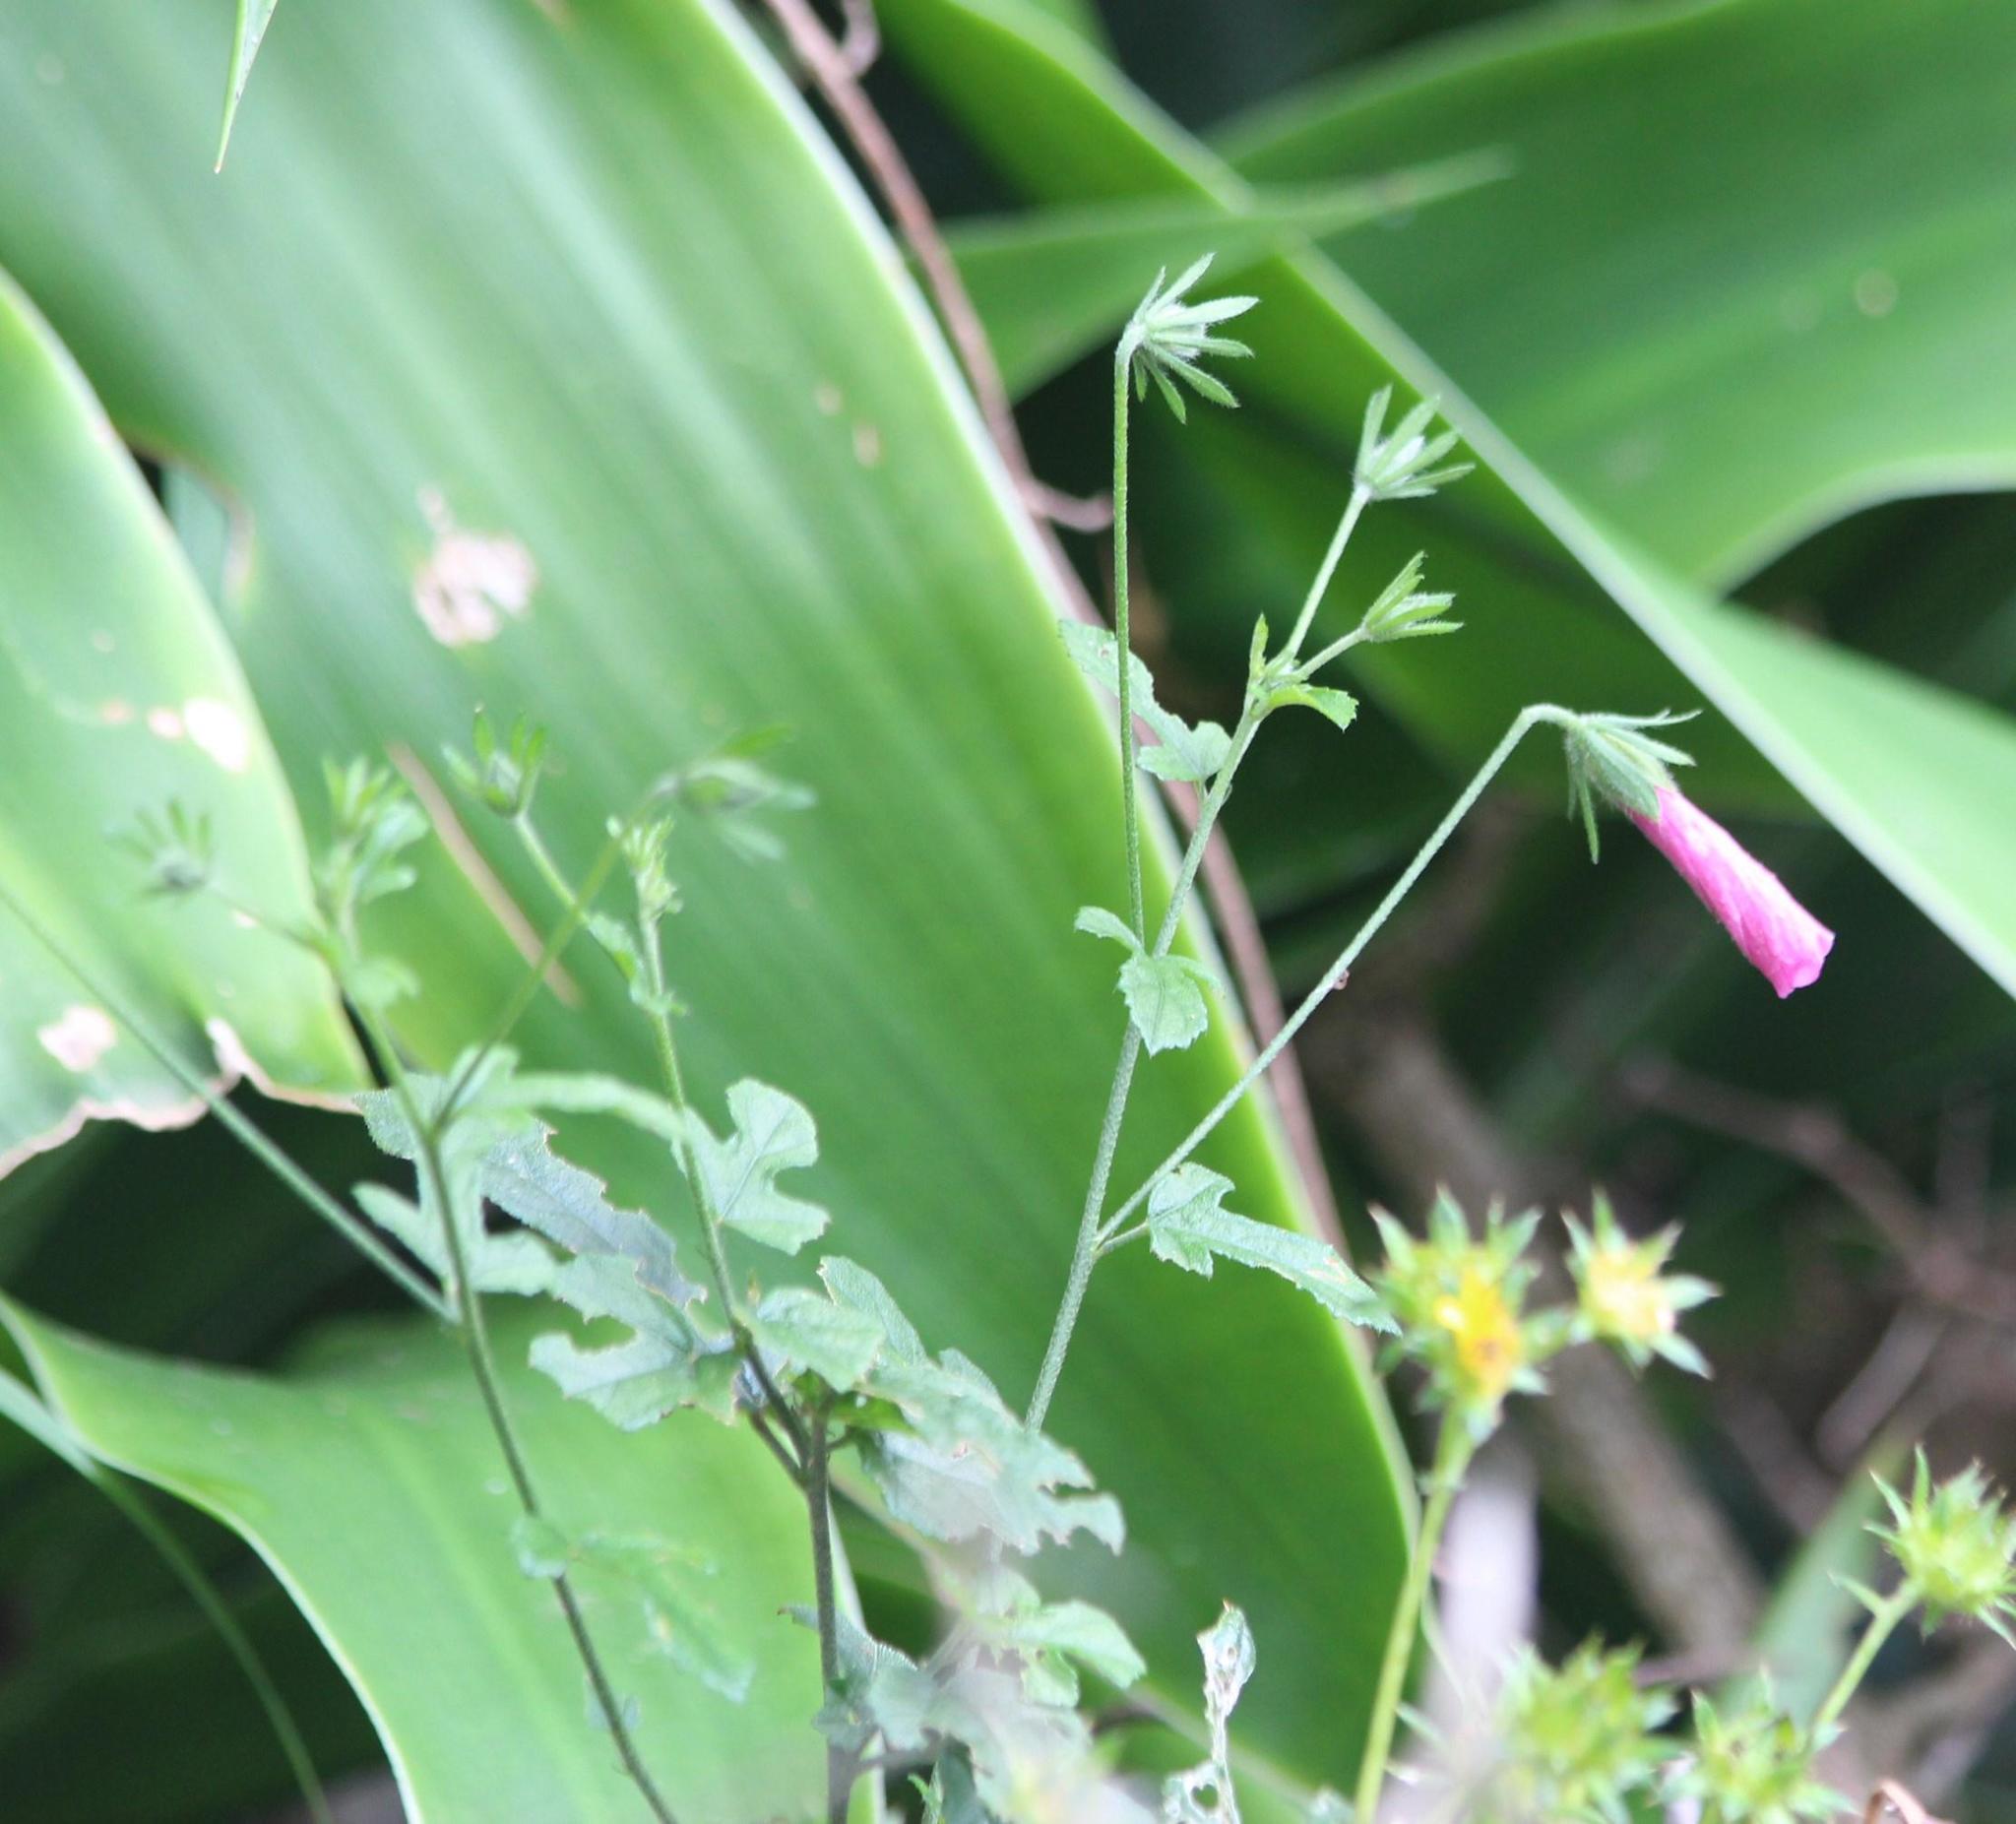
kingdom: Plantae
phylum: Tracheophyta
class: Magnoliopsida
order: Malvales
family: Malvaceae
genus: Hibiscus
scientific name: Hibiscus pedunculatus
